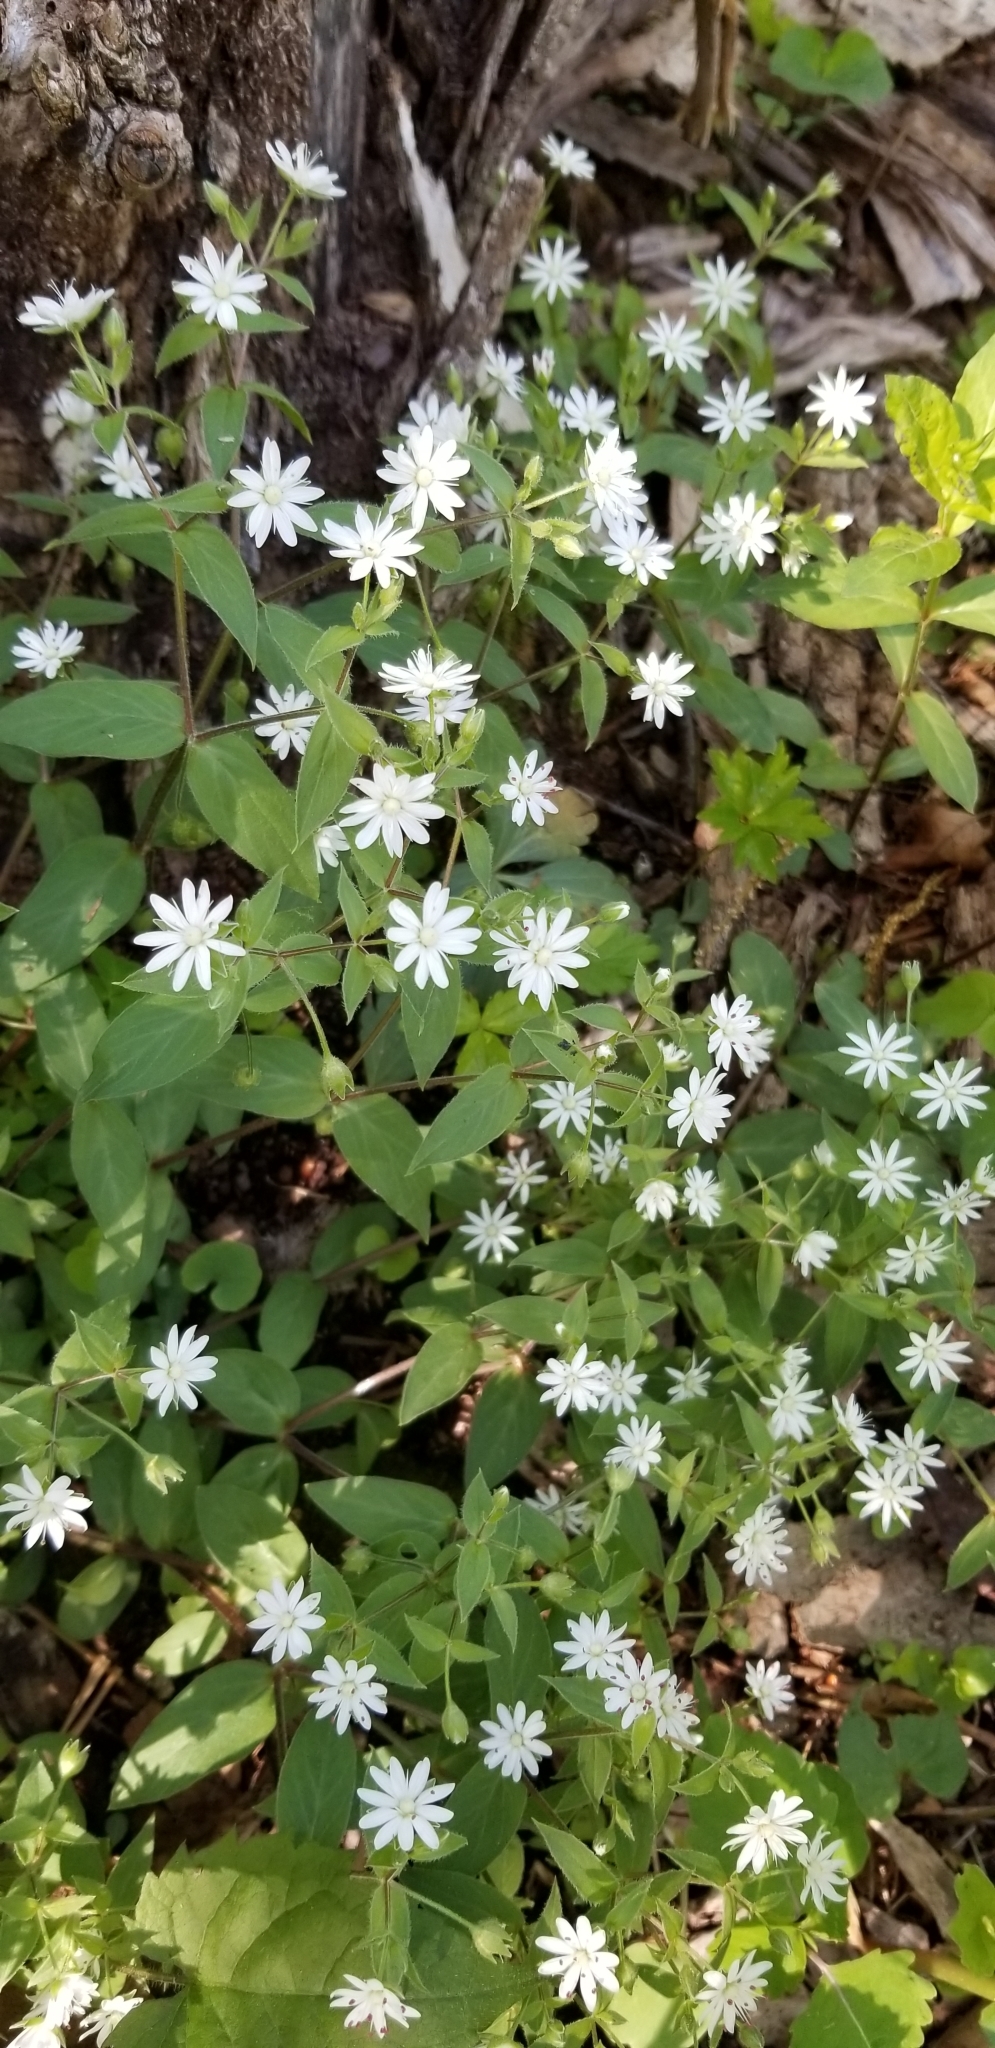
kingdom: Plantae
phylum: Tracheophyta
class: Magnoliopsida
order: Caryophyllales
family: Caryophyllaceae
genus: Stellaria
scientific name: Stellaria pubera
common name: Star chickweed
